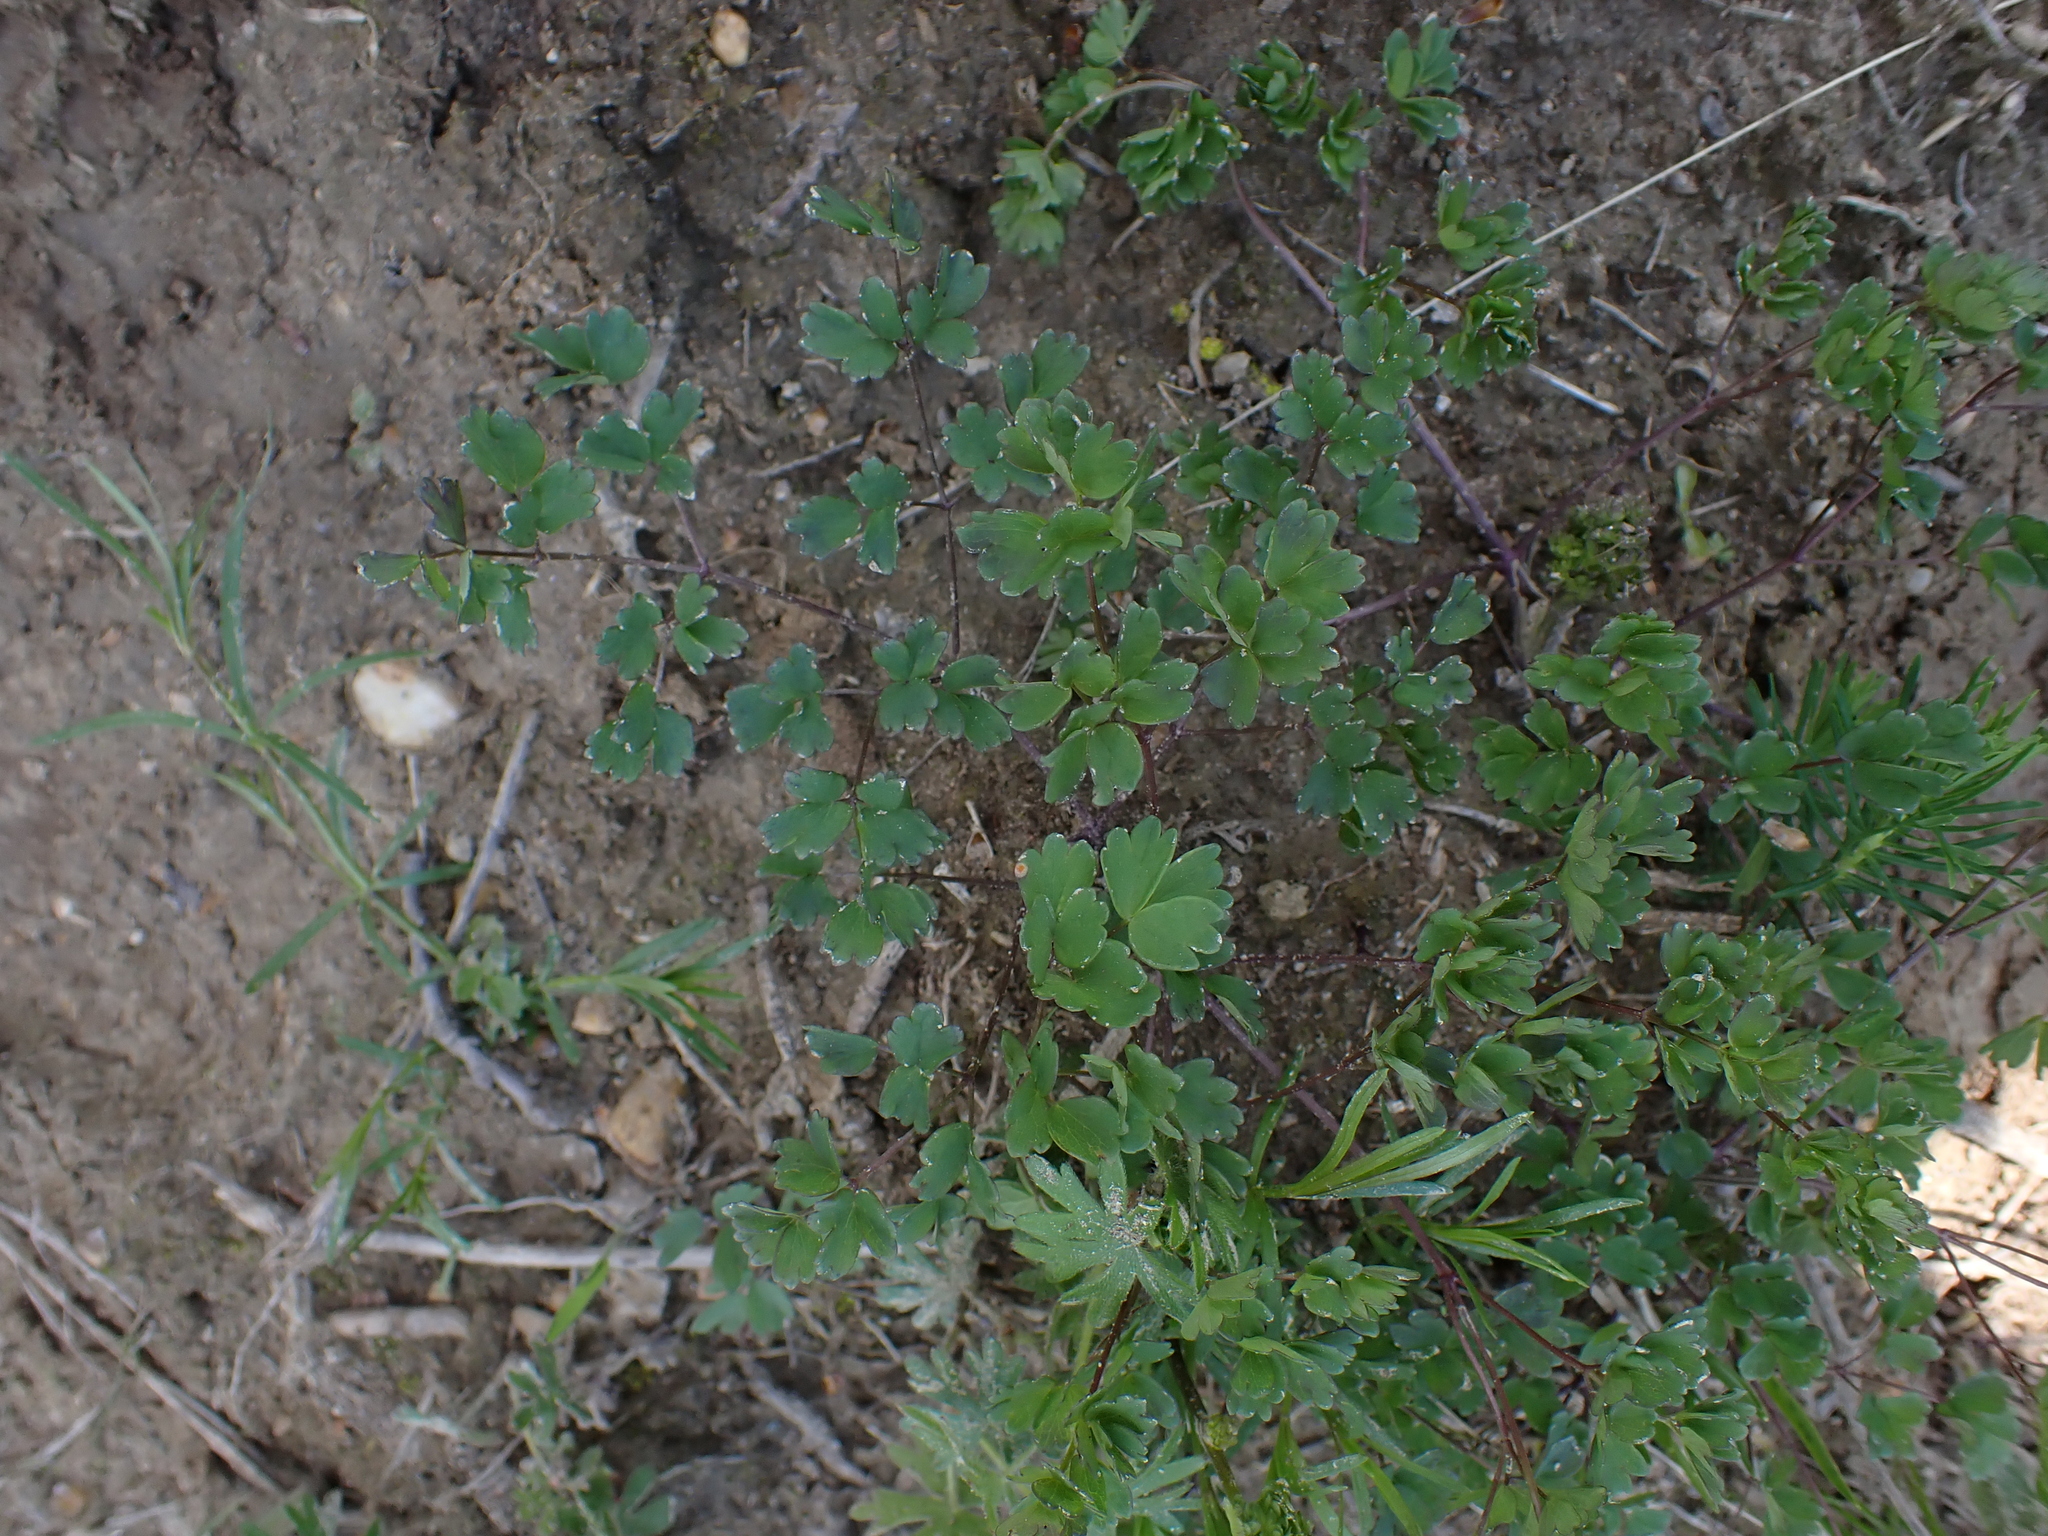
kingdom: Plantae
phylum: Tracheophyta
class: Magnoliopsida
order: Ranunculales
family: Ranunculaceae
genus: Thalictrum
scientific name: Thalictrum minus
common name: Lesser meadow-rue
